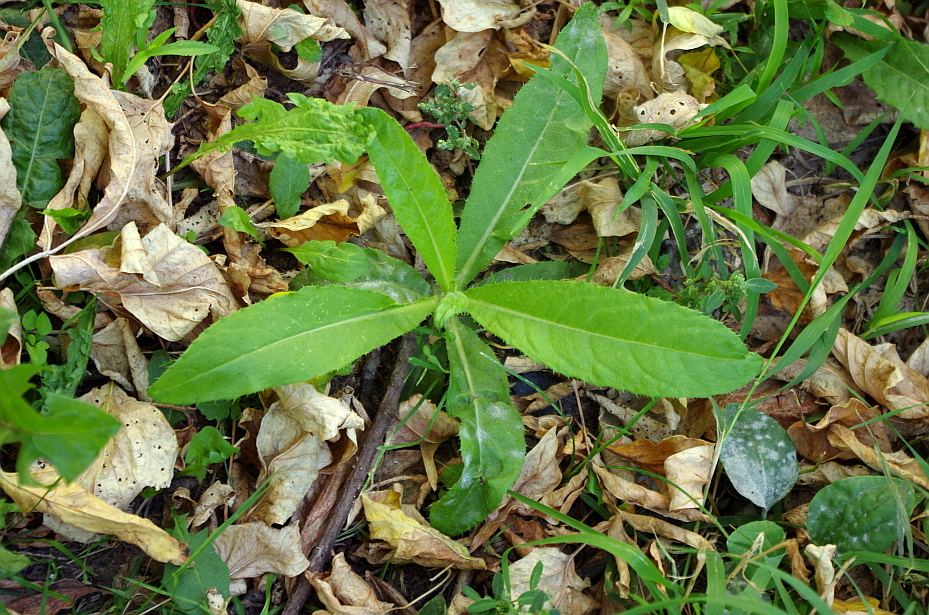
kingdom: Plantae
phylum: Tracheophyta
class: Magnoliopsida
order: Asterales
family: Asteraceae
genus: Cirsium
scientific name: Cirsium arvense
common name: Creeping thistle
